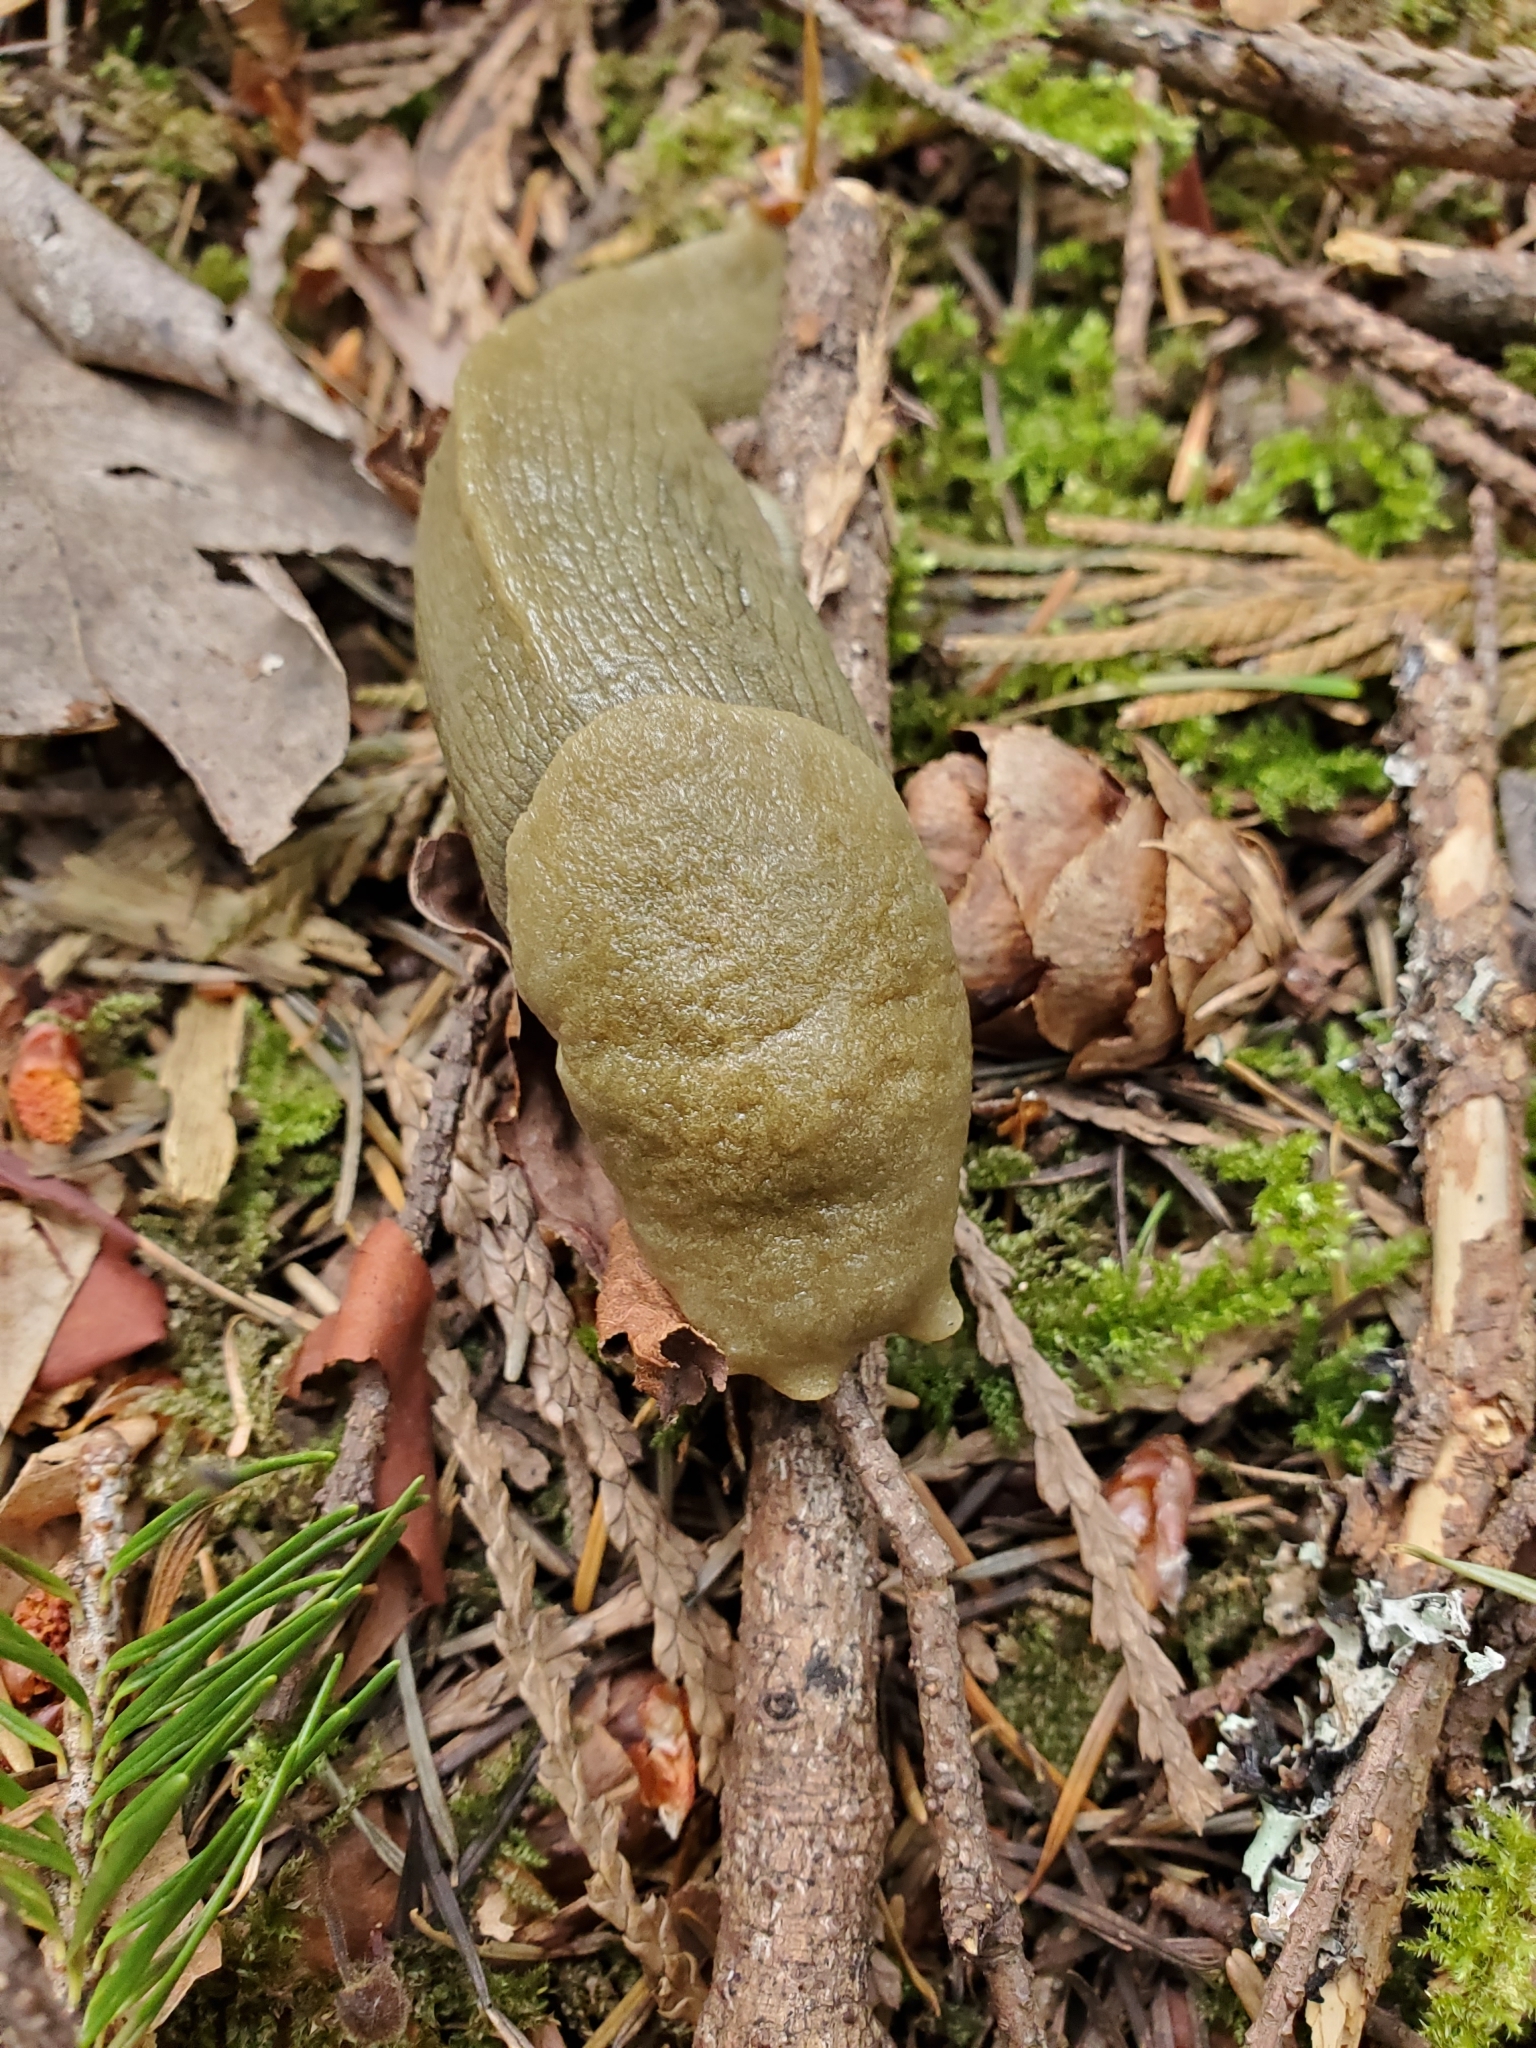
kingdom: Animalia
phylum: Mollusca
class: Gastropoda
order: Stylommatophora
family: Ariolimacidae
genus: Ariolimax
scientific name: Ariolimax columbianus
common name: Pacific banana slug
